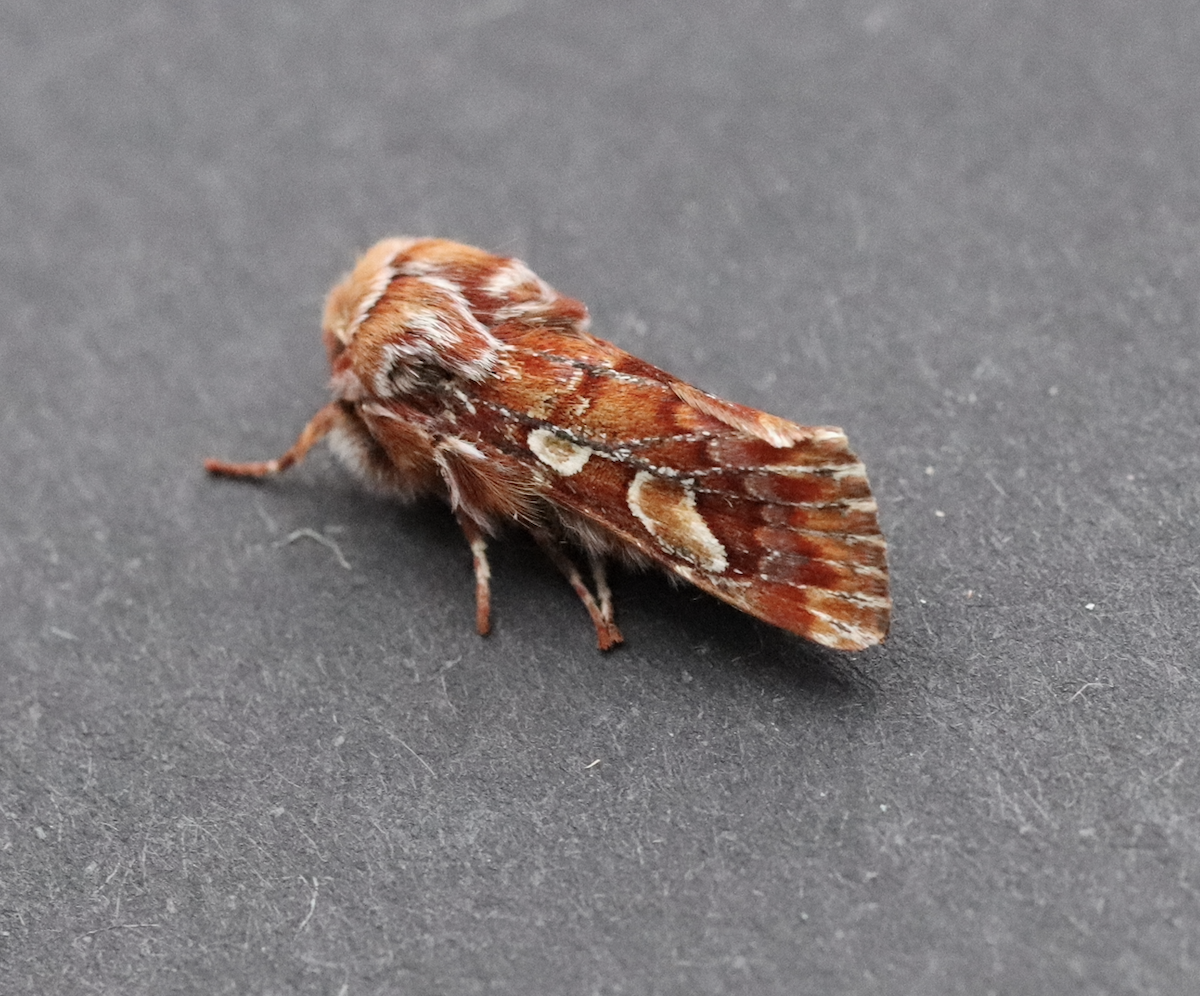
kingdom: Animalia
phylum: Arthropoda
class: Insecta
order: Lepidoptera
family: Noctuidae
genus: Panolis
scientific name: Panolis flammea
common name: Pine beauty
